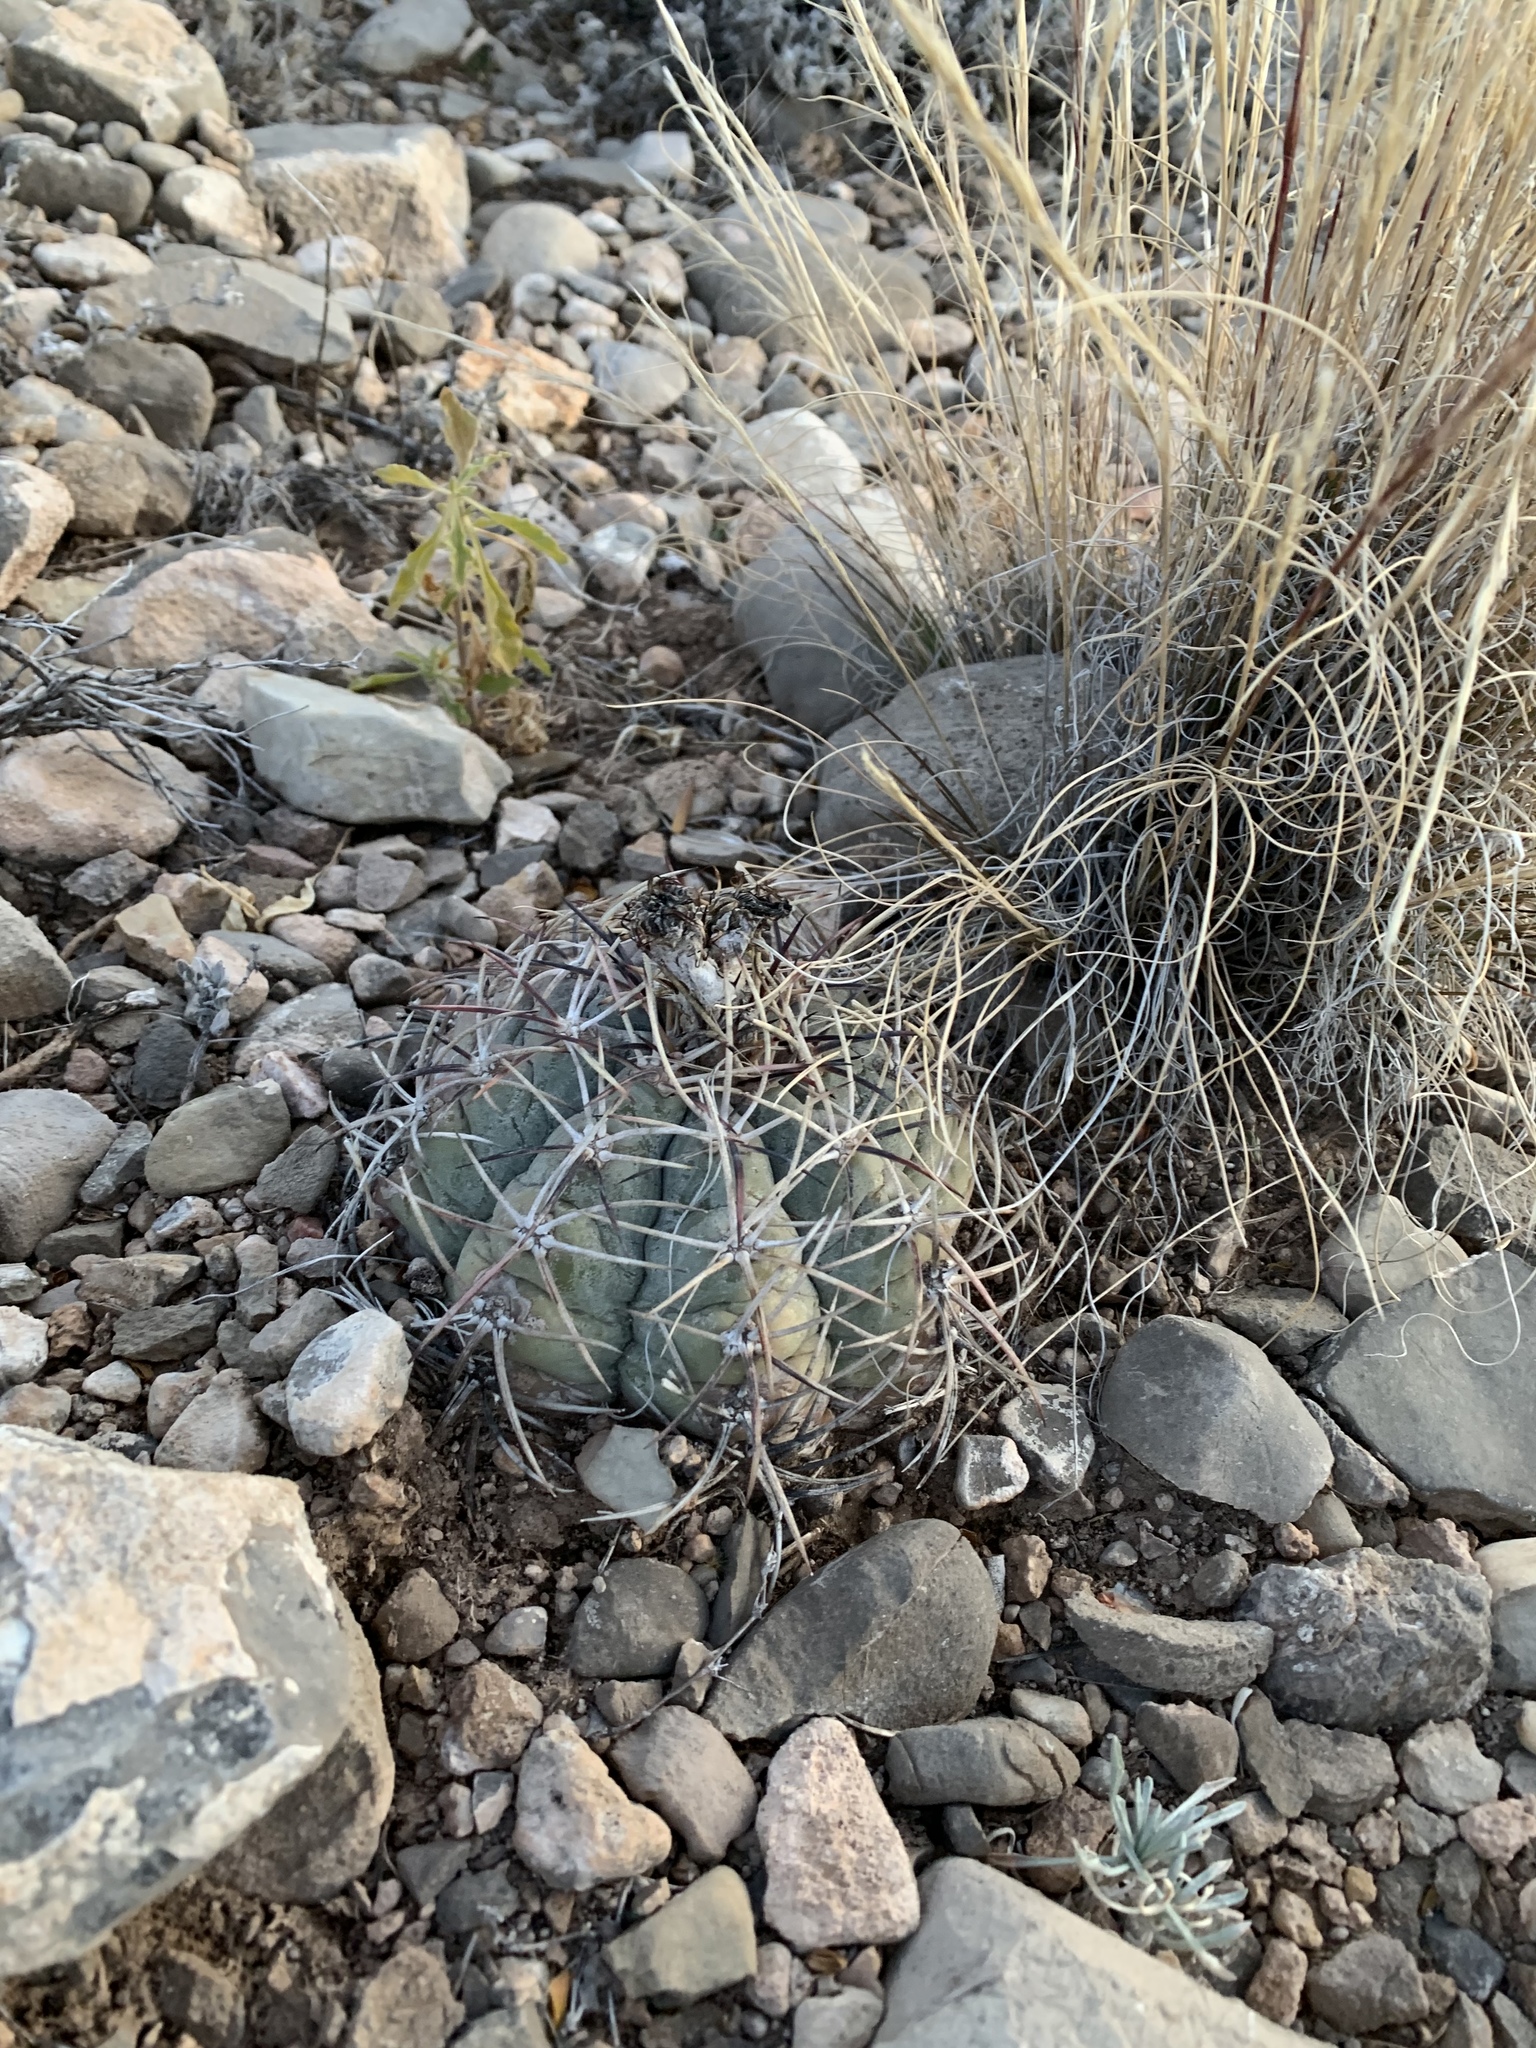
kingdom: Plantae
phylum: Tracheophyta
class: Magnoliopsida
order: Caryophyllales
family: Cactaceae
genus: Echinocactus
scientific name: Echinocactus horizonthalonius
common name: Devilshead
